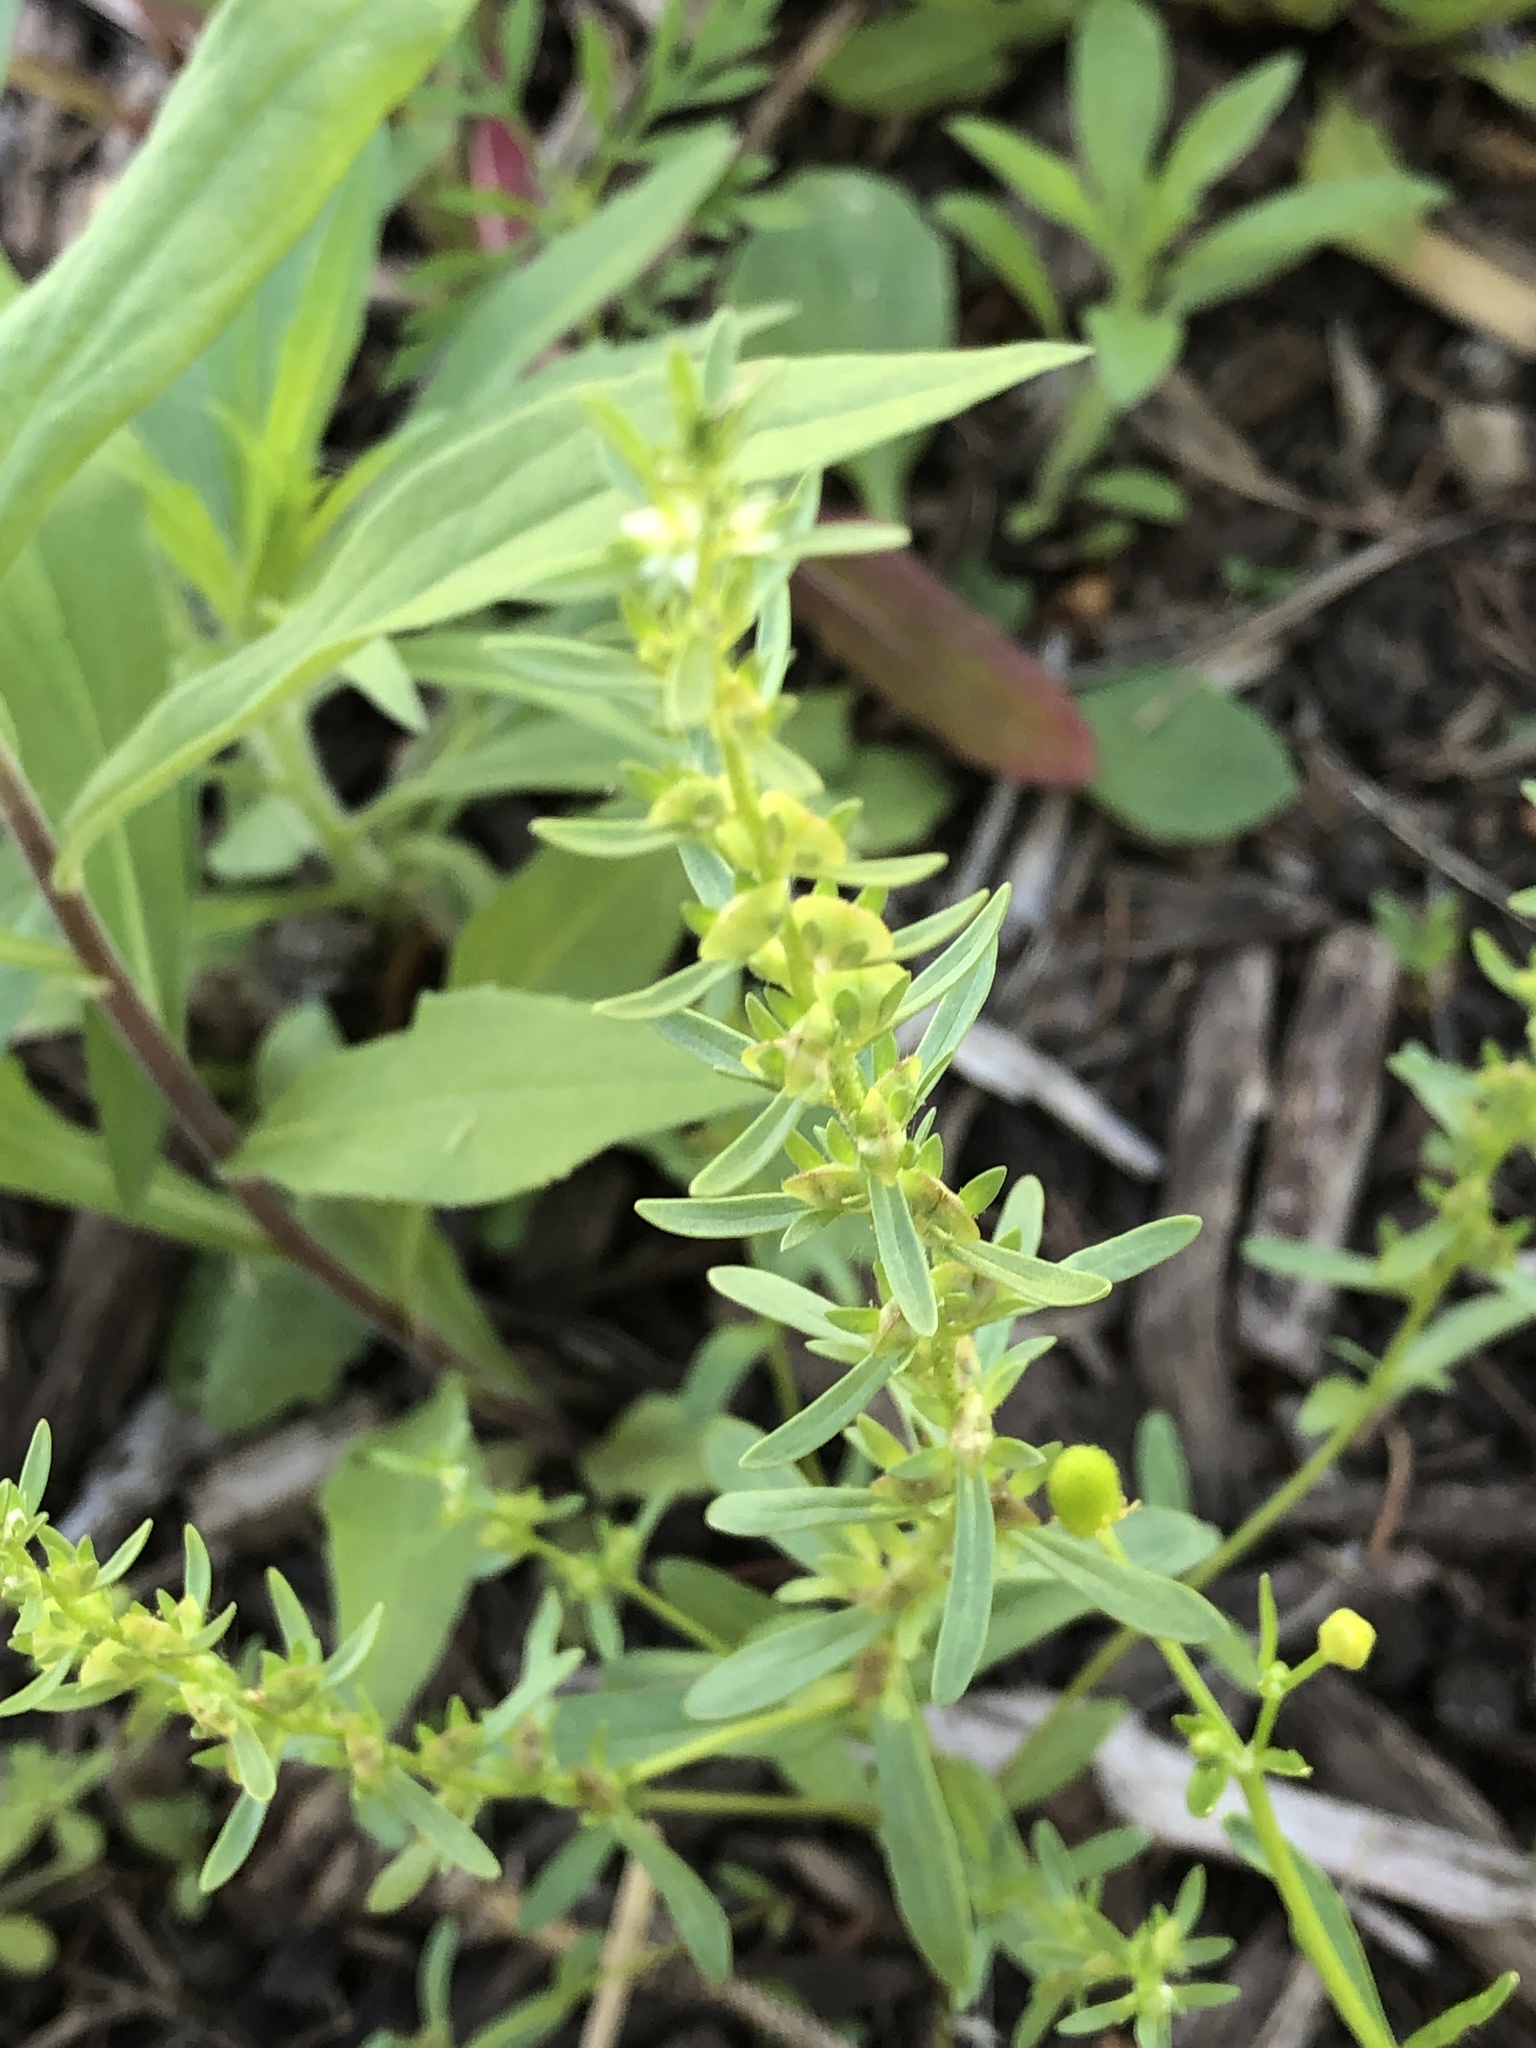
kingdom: Plantae
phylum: Tracheophyta
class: Magnoliopsida
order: Lamiales
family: Plantaginaceae
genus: Veronica
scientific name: Veronica peregrina
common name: Neckweed
